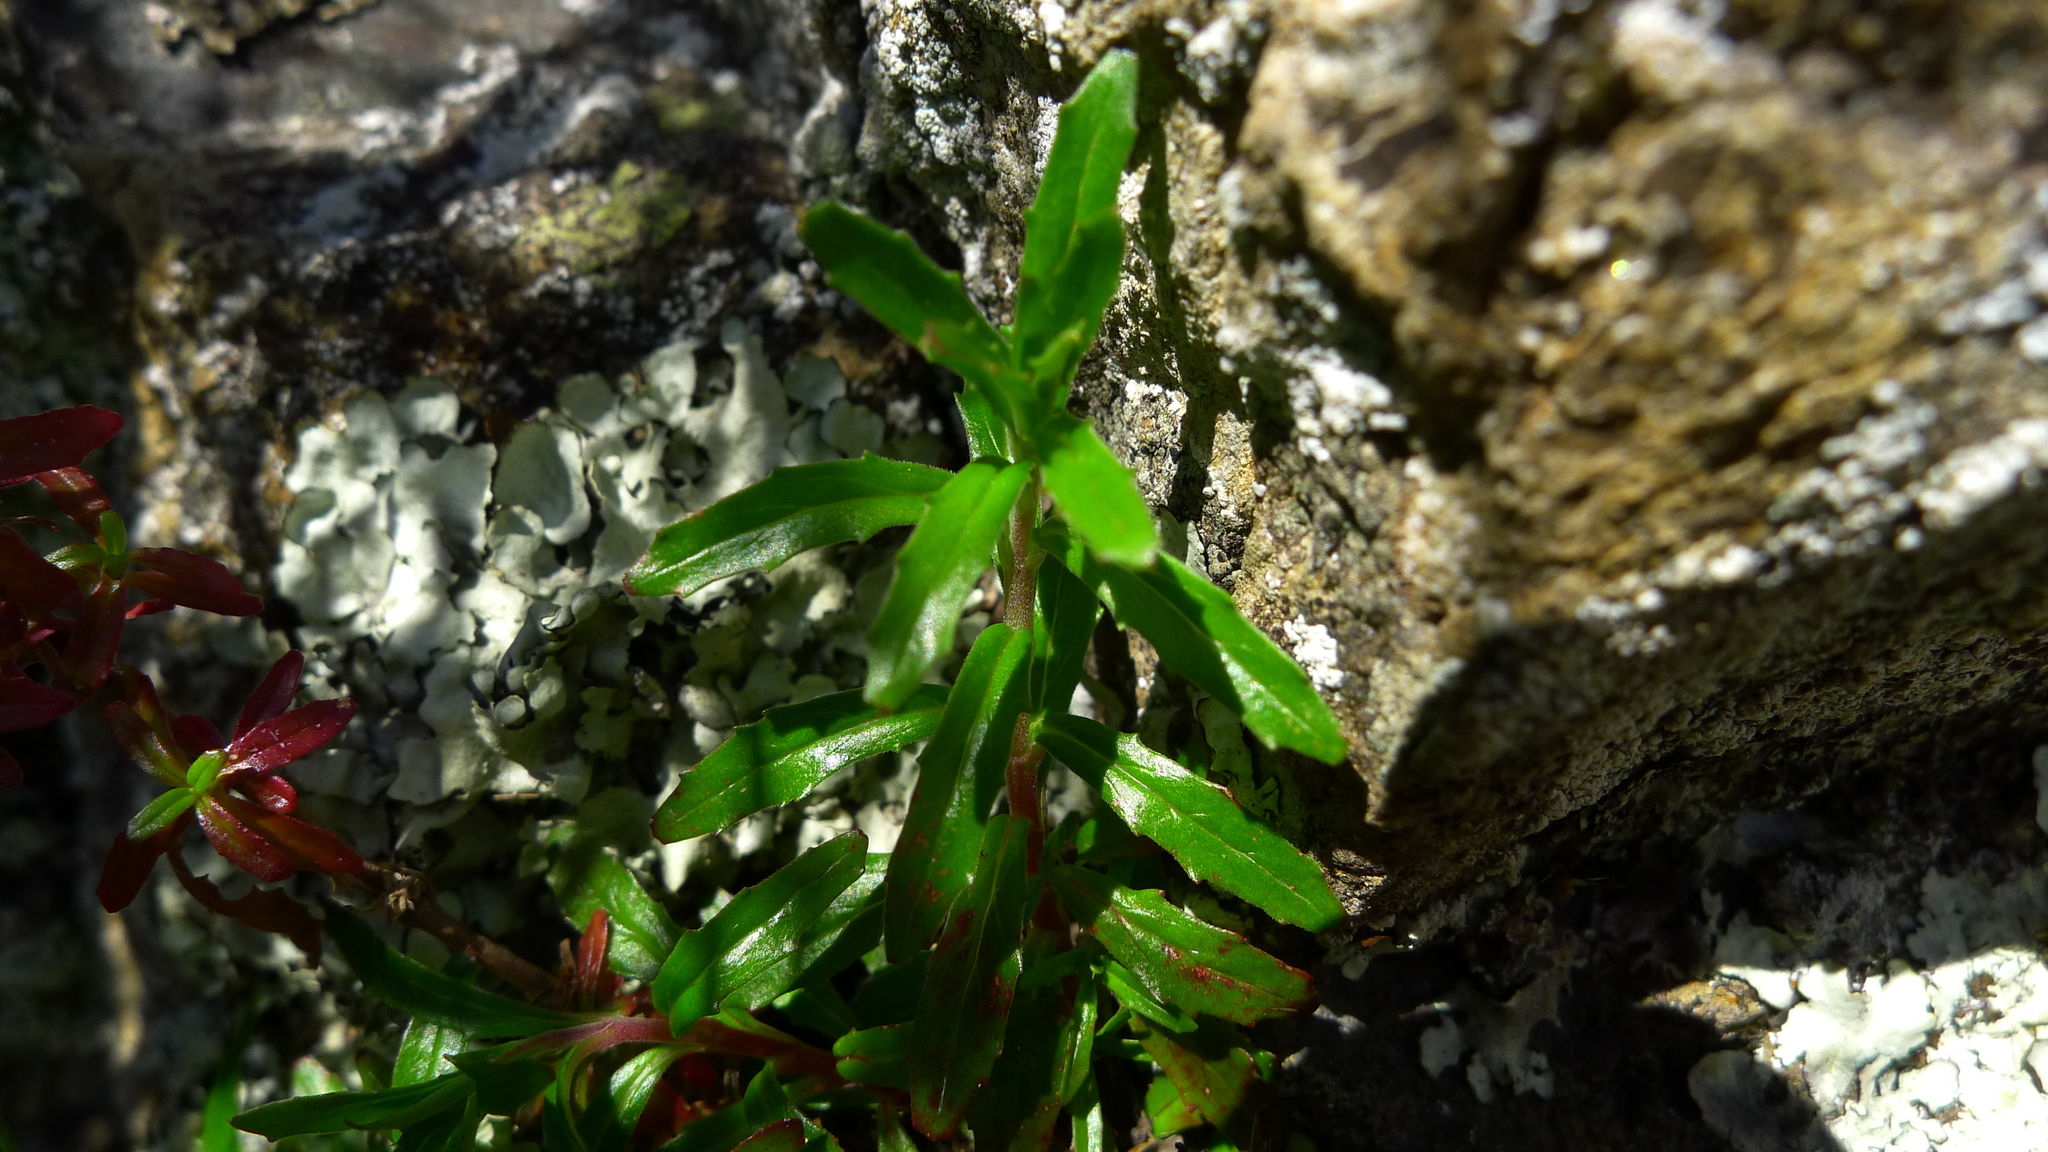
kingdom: Plantae
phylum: Tracheophyta
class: Magnoliopsida
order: Myrtales
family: Onagraceae
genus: Epilobium
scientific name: Epilobium billardierianum
